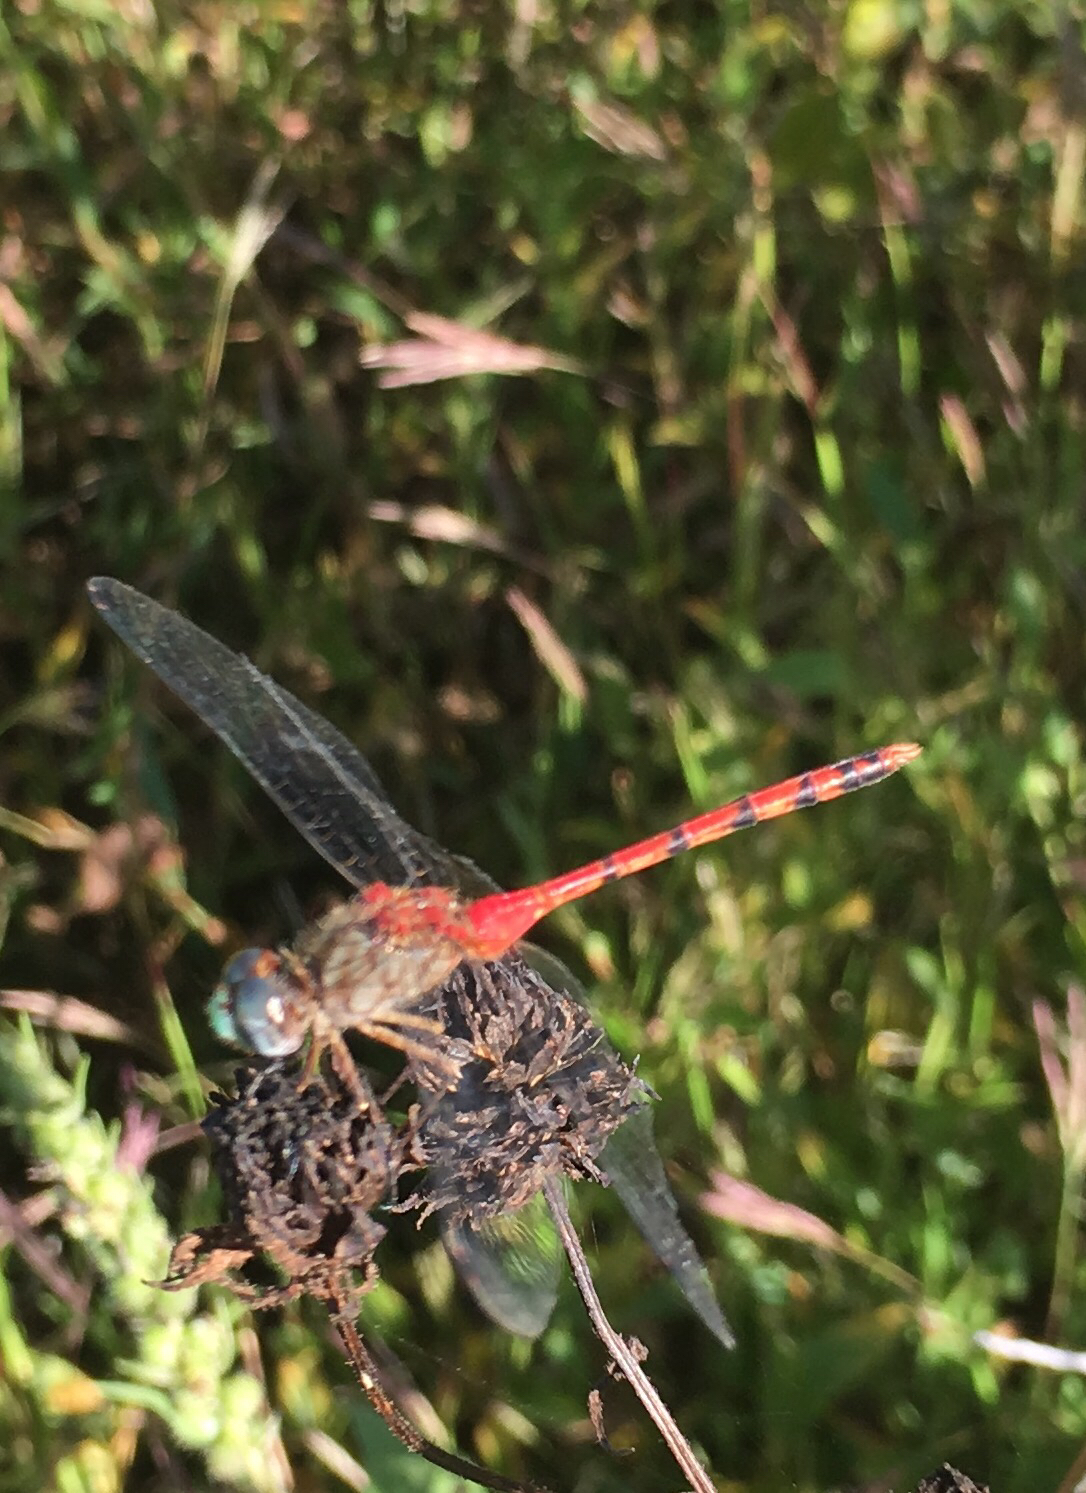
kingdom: Animalia
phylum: Arthropoda
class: Insecta
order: Odonata
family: Libellulidae
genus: Sympetrum
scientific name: Sympetrum ambiguum
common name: Blue-faced meadowhawk
